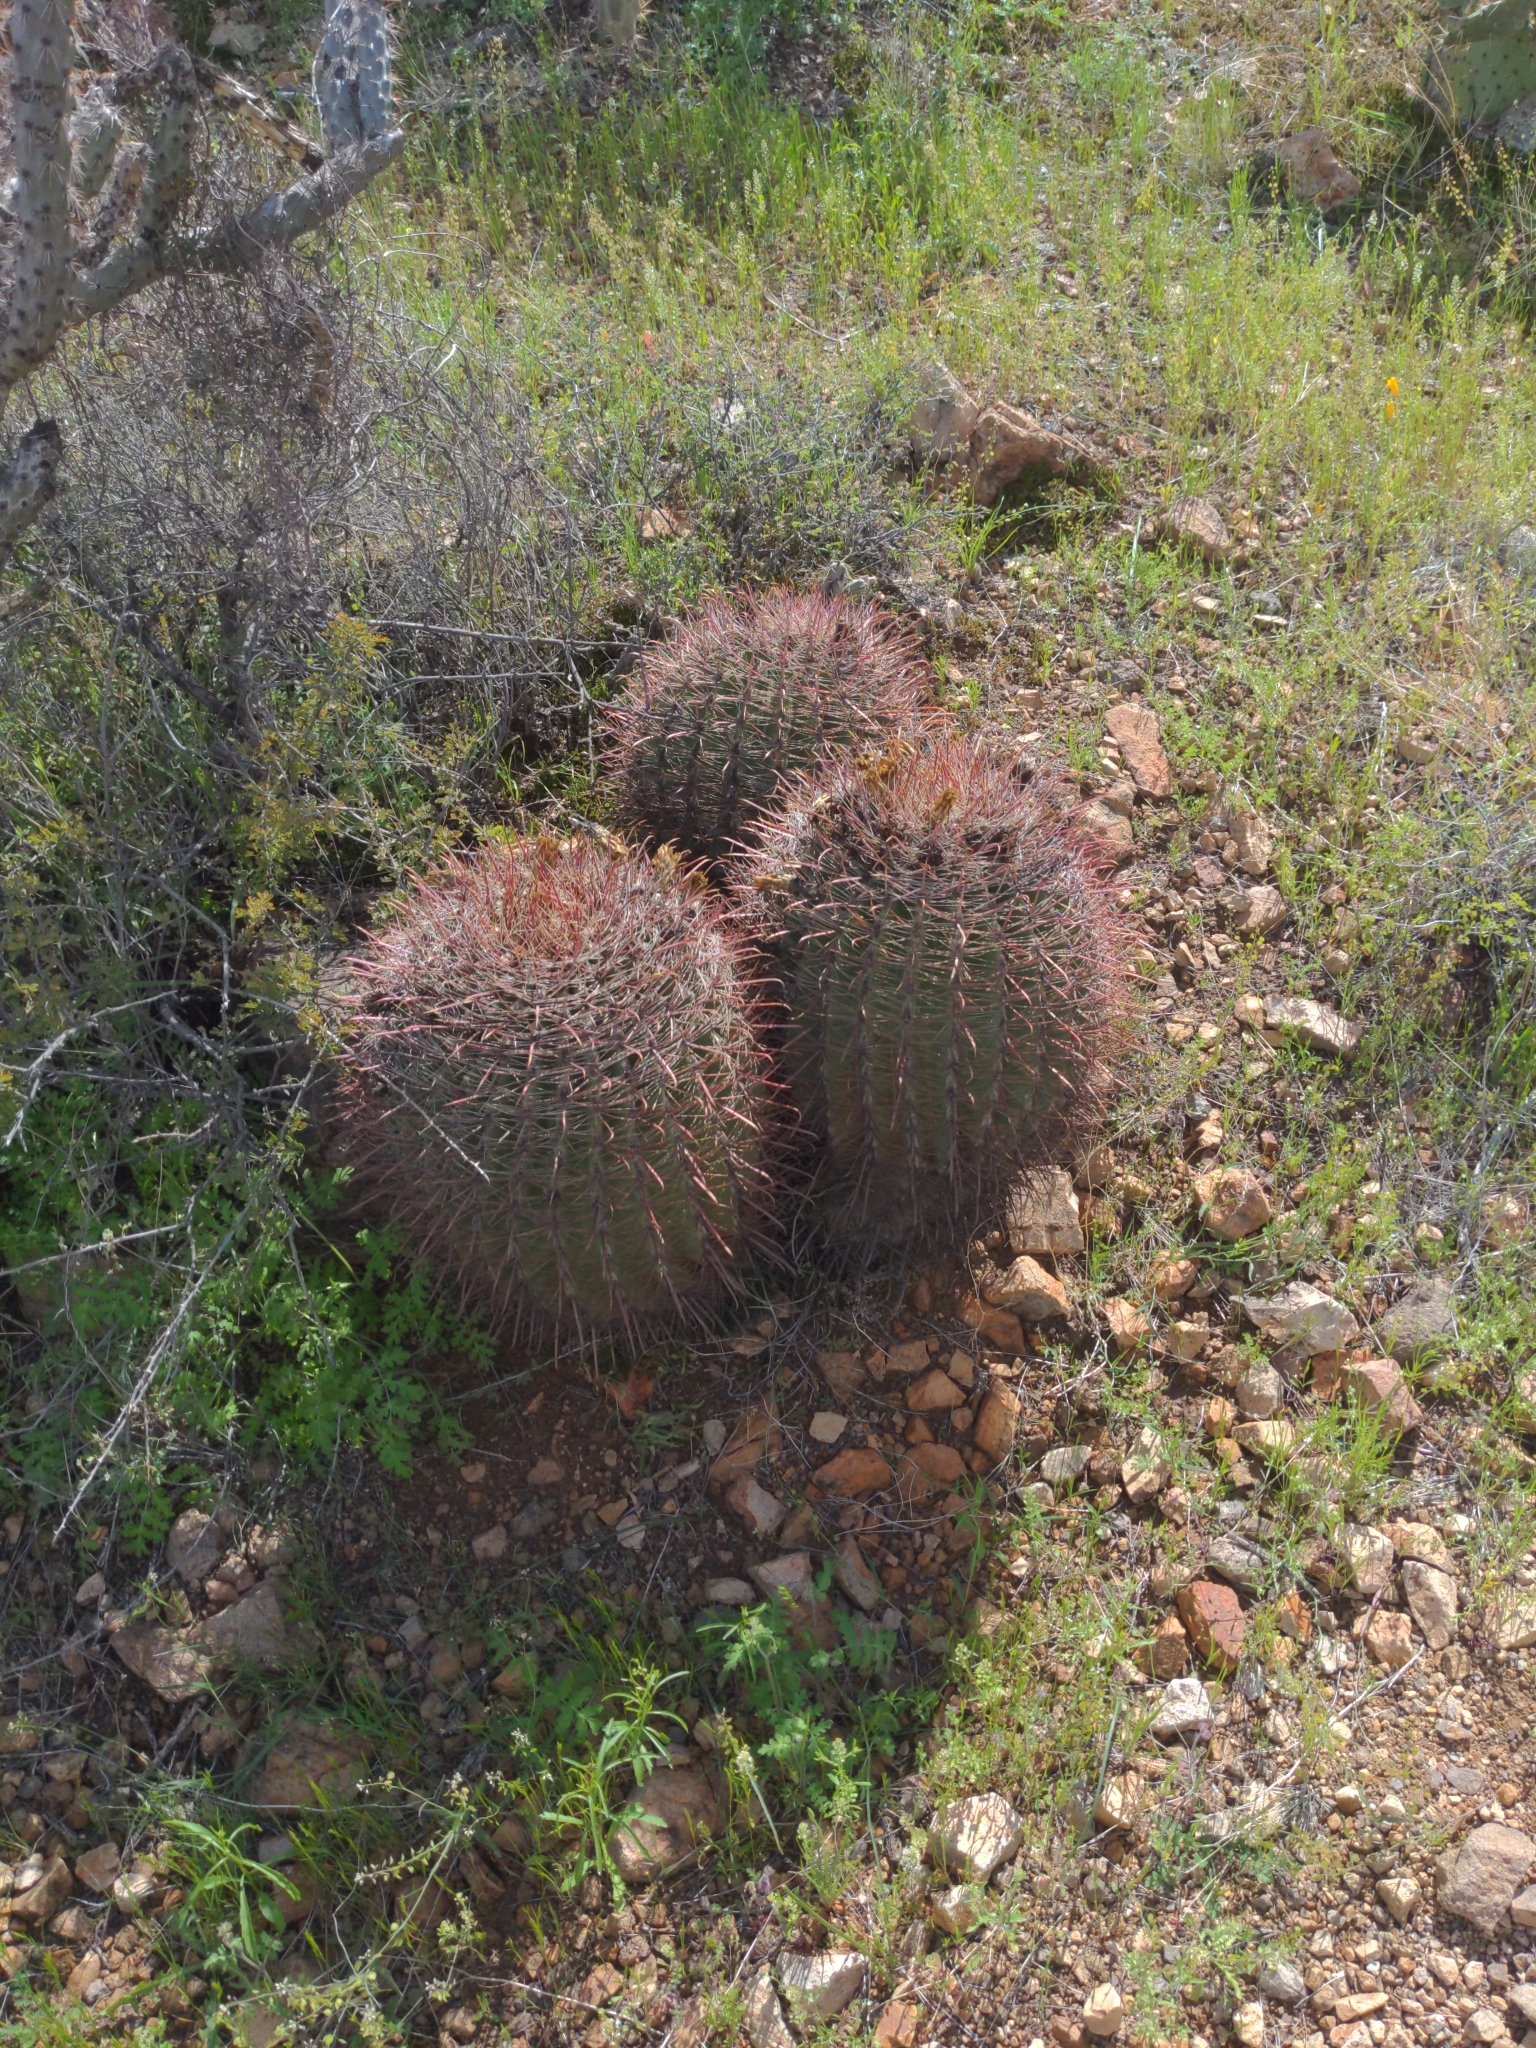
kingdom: Plantae
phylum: Tracheophyta
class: Magnoliopsida
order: Caryophyllales
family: Cactaceae
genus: Ferocactus
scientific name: Ferocactus wislizeni
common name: Candy barrel cactus
